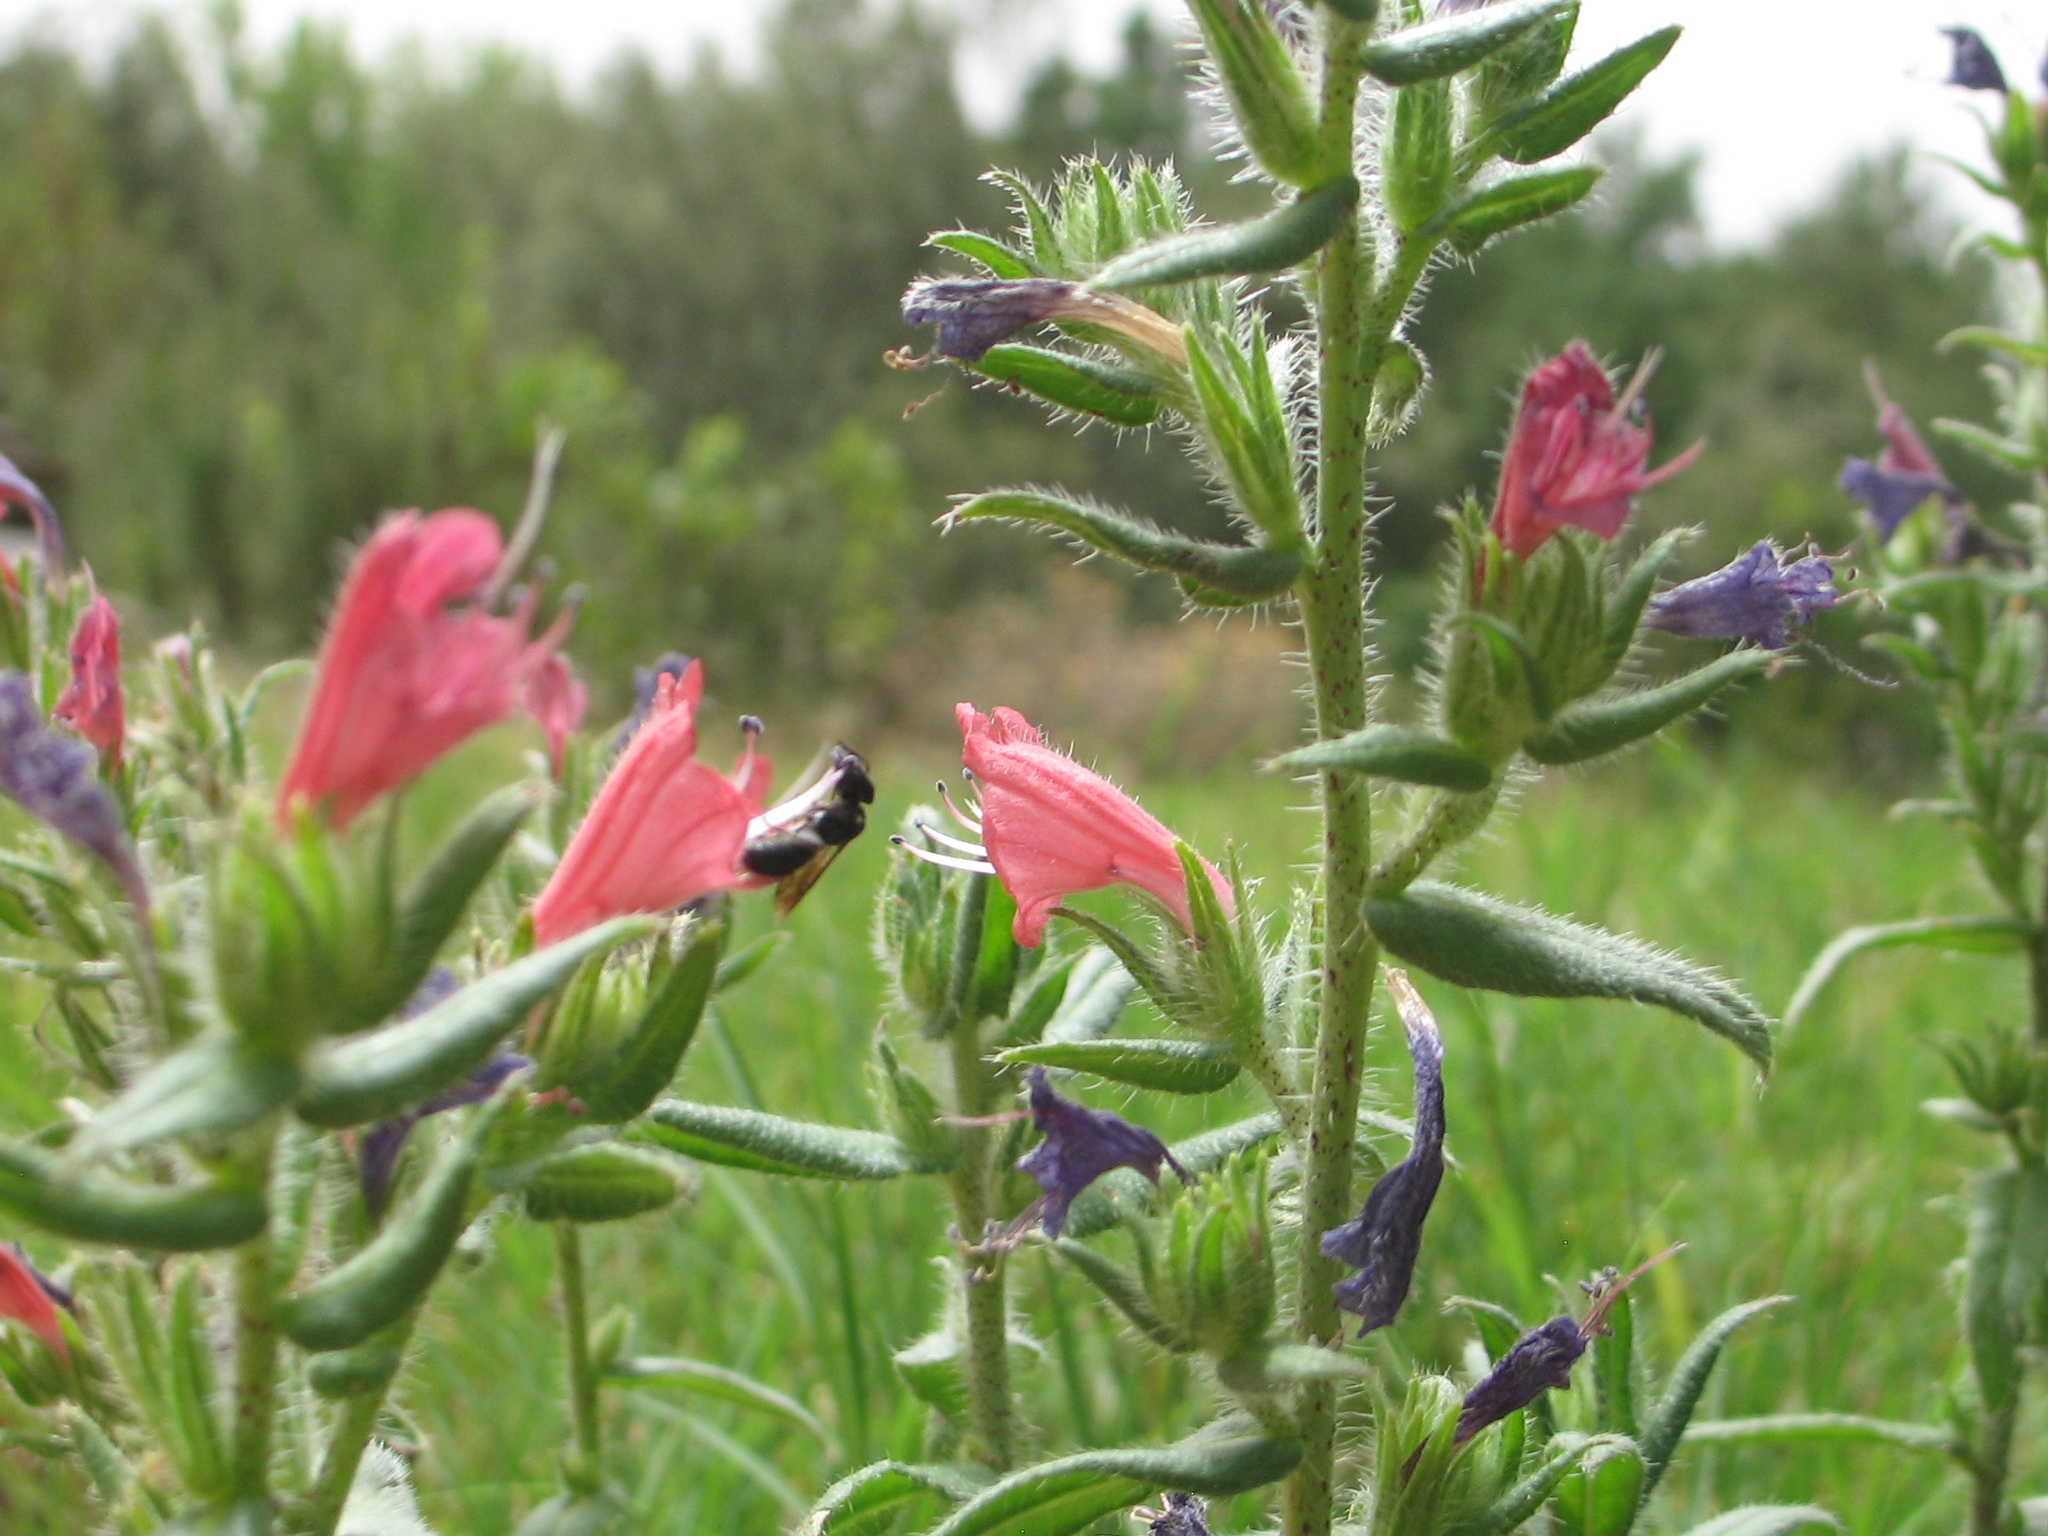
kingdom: Plantae
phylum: Tracheophyta
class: Magnoliopsida
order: Boraginales
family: Boraginaceae
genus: Echium
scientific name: Echium rosulatum
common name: Lax viper's-bugloss
